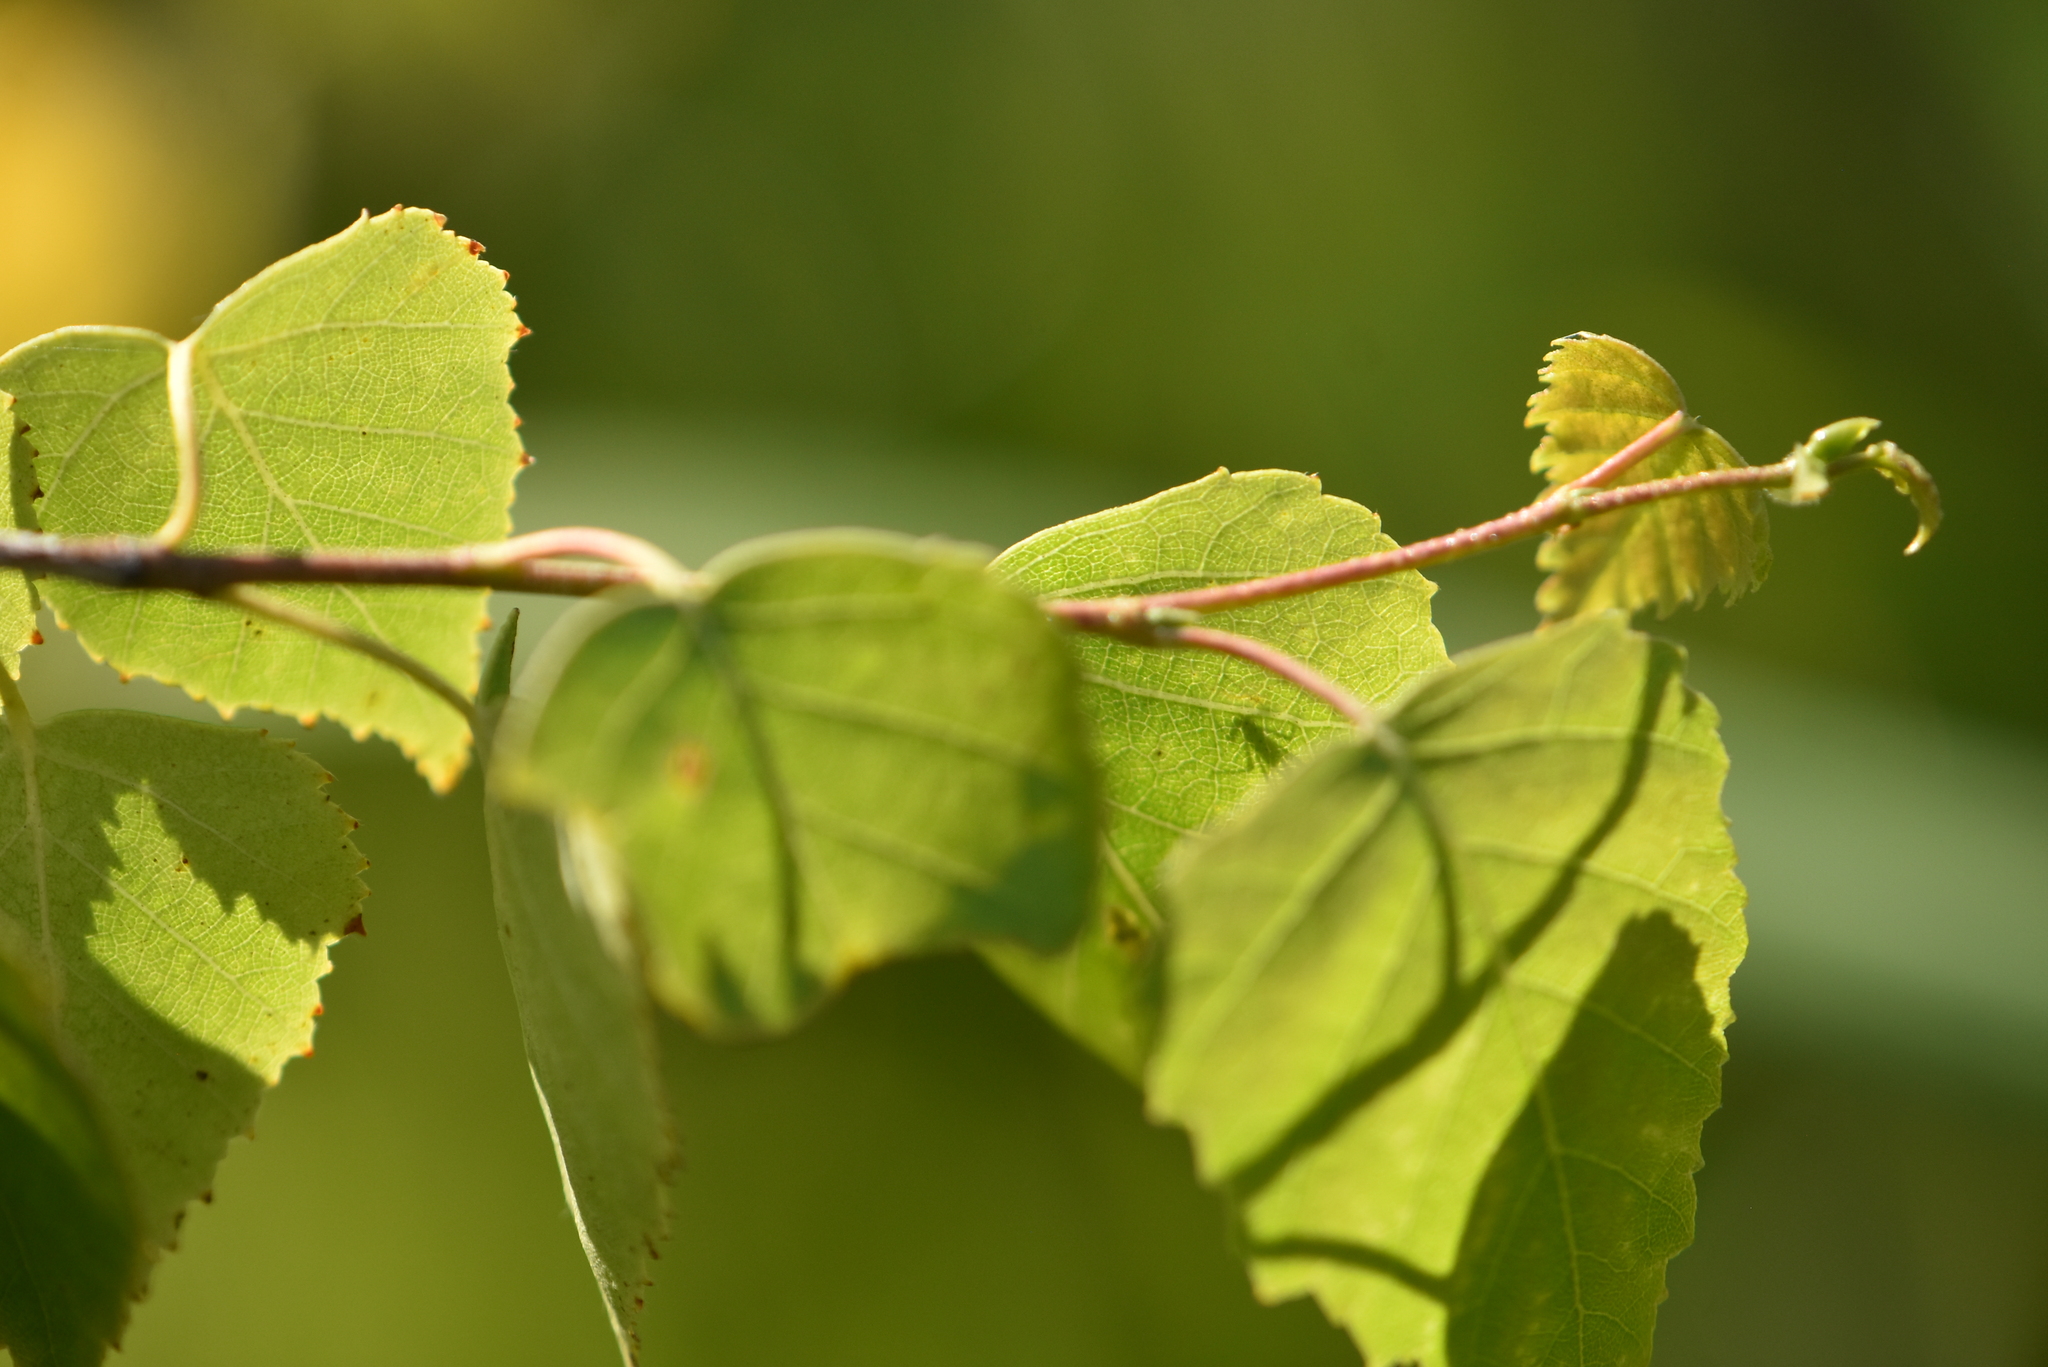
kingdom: Plantae
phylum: Tracheophyta
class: Magnoliopsida
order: Fagales
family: Betulaceae
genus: Betula
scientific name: Betula pendula
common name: Silver birch
